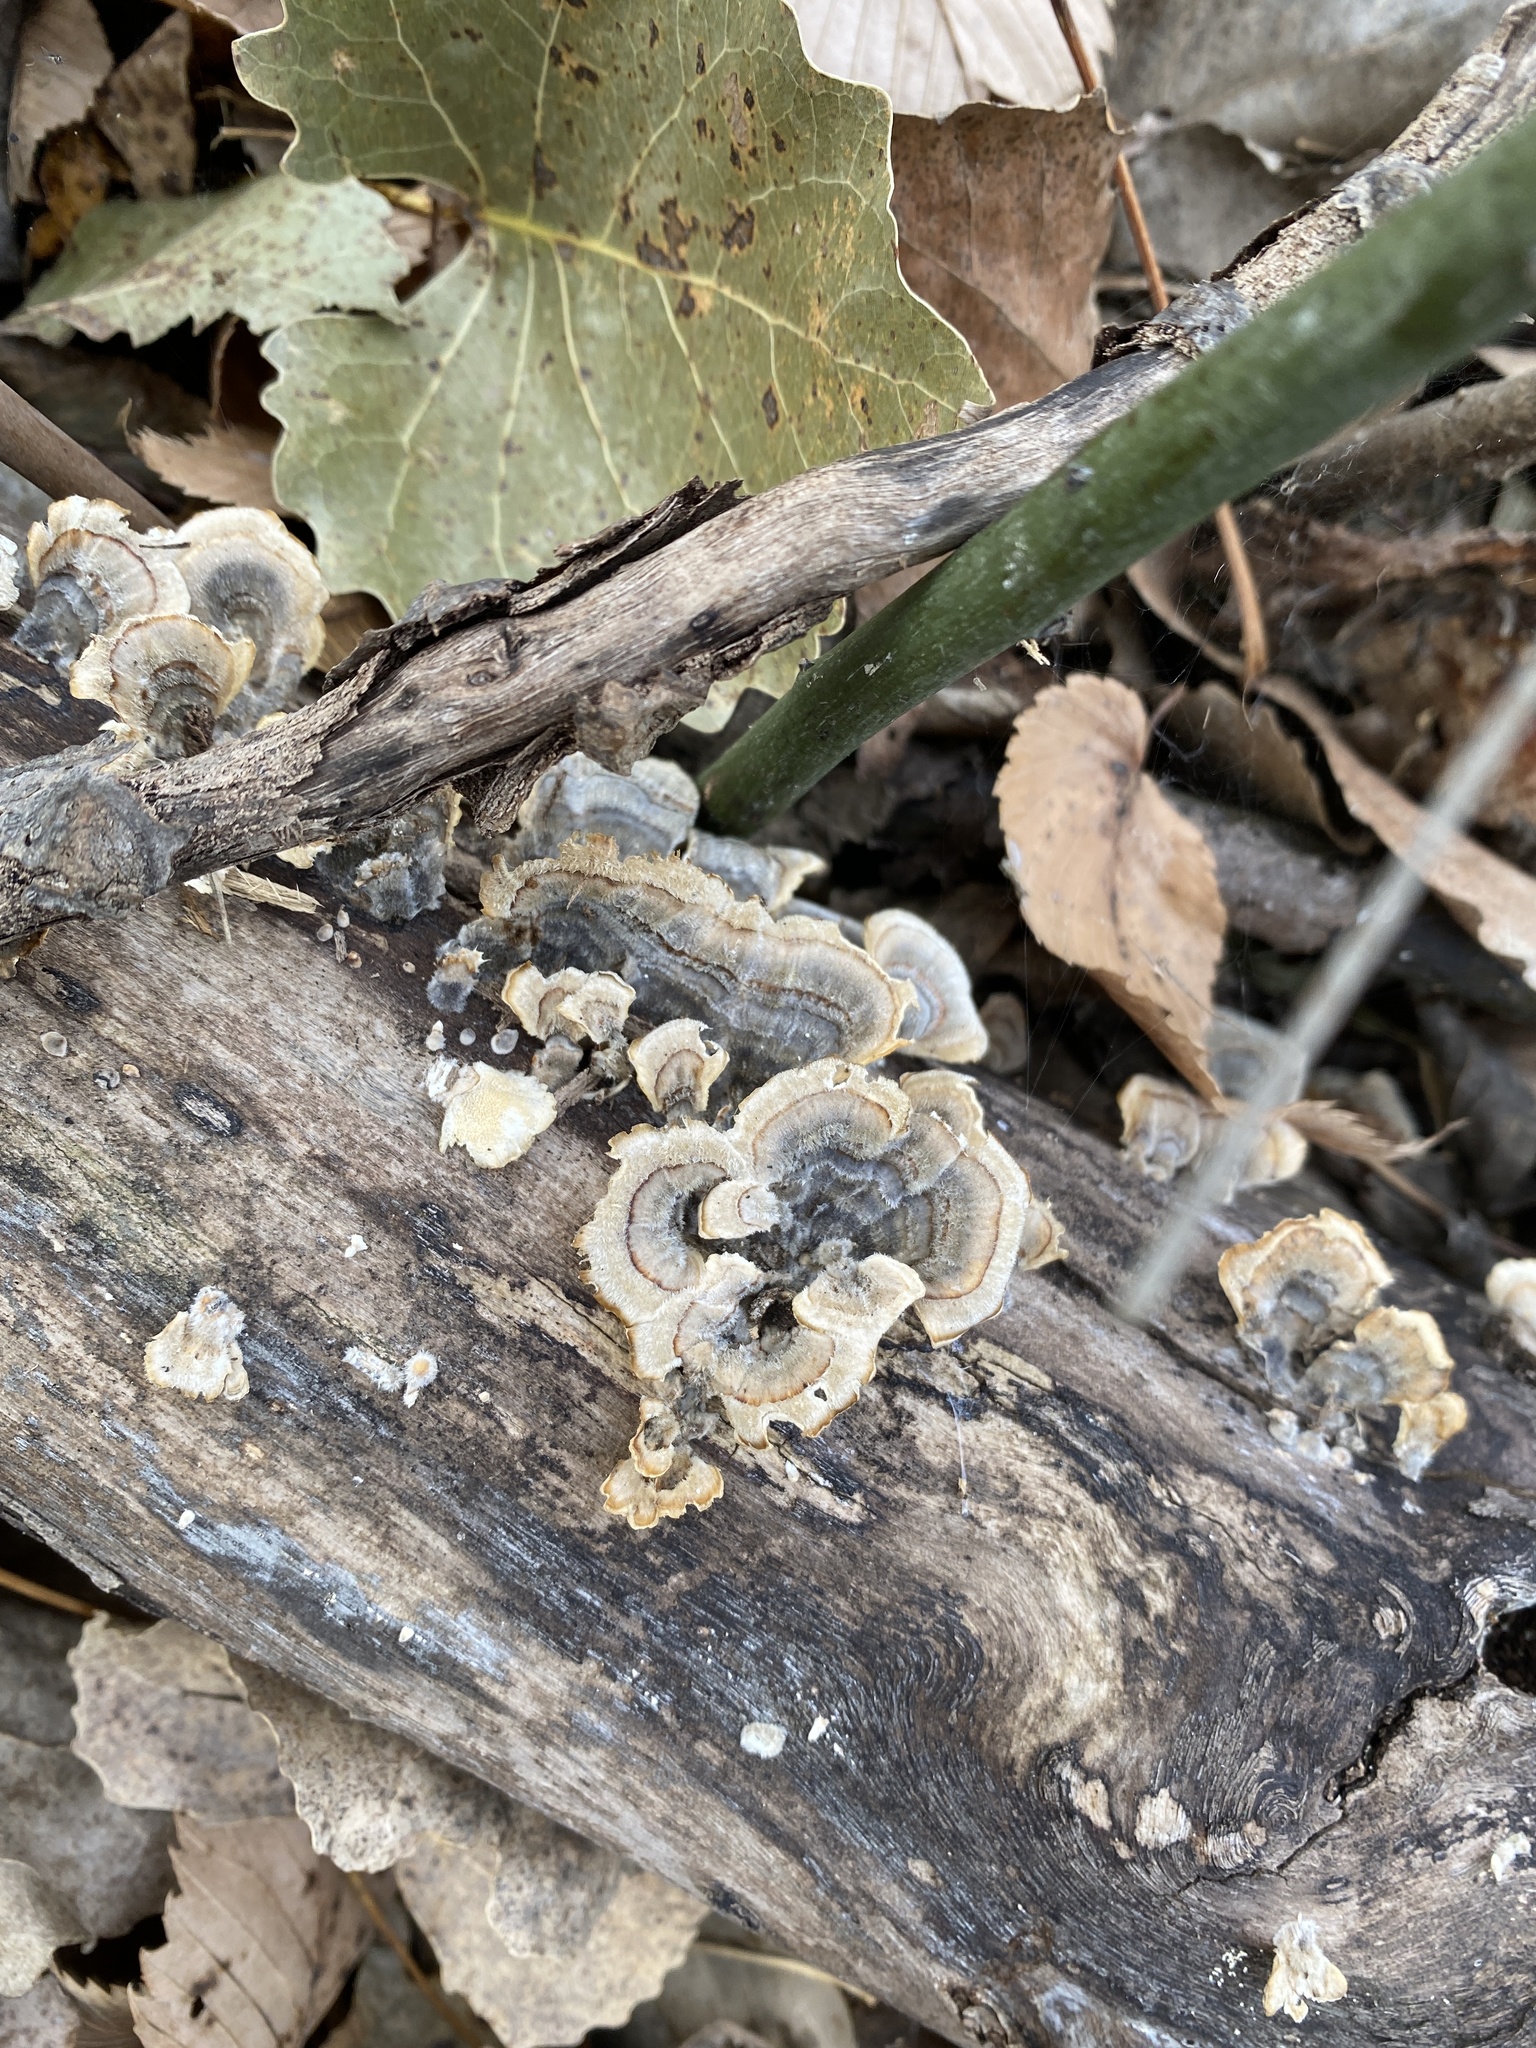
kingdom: Fungi
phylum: Basidiomycota
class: Agaricomycetes
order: Polyporales
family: Polyporaceae
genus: Trametes
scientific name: Trametes versicolor
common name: Turkeytail
